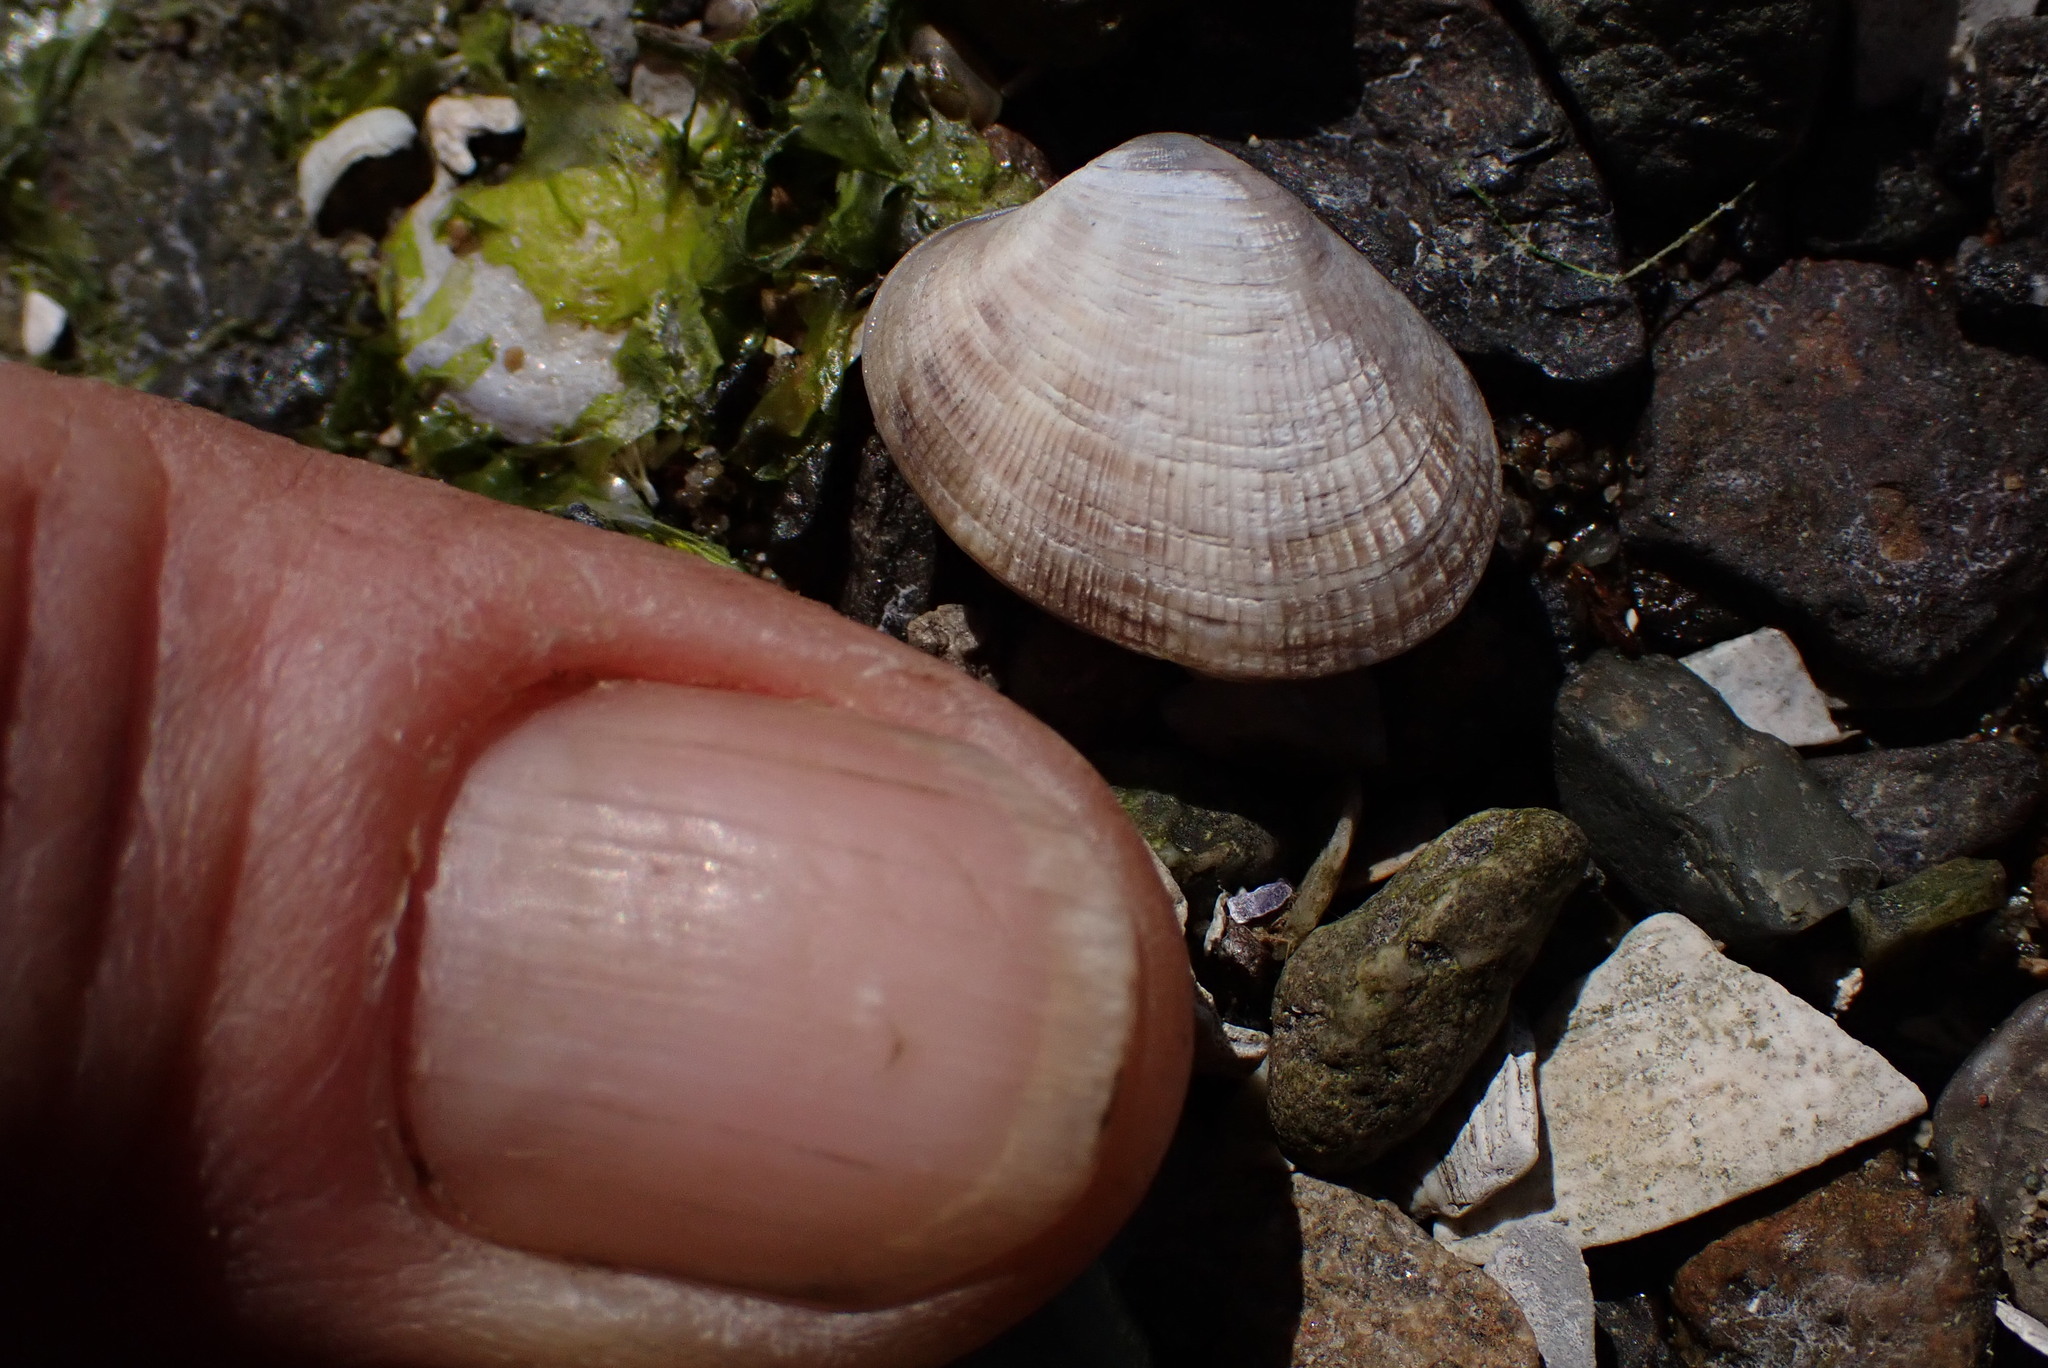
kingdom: Animalia
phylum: Mollusca
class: Bivalvia
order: Venerida
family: Veneridae
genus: Ruditapes
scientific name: Ruditapes philippinarum
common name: Manila clam
